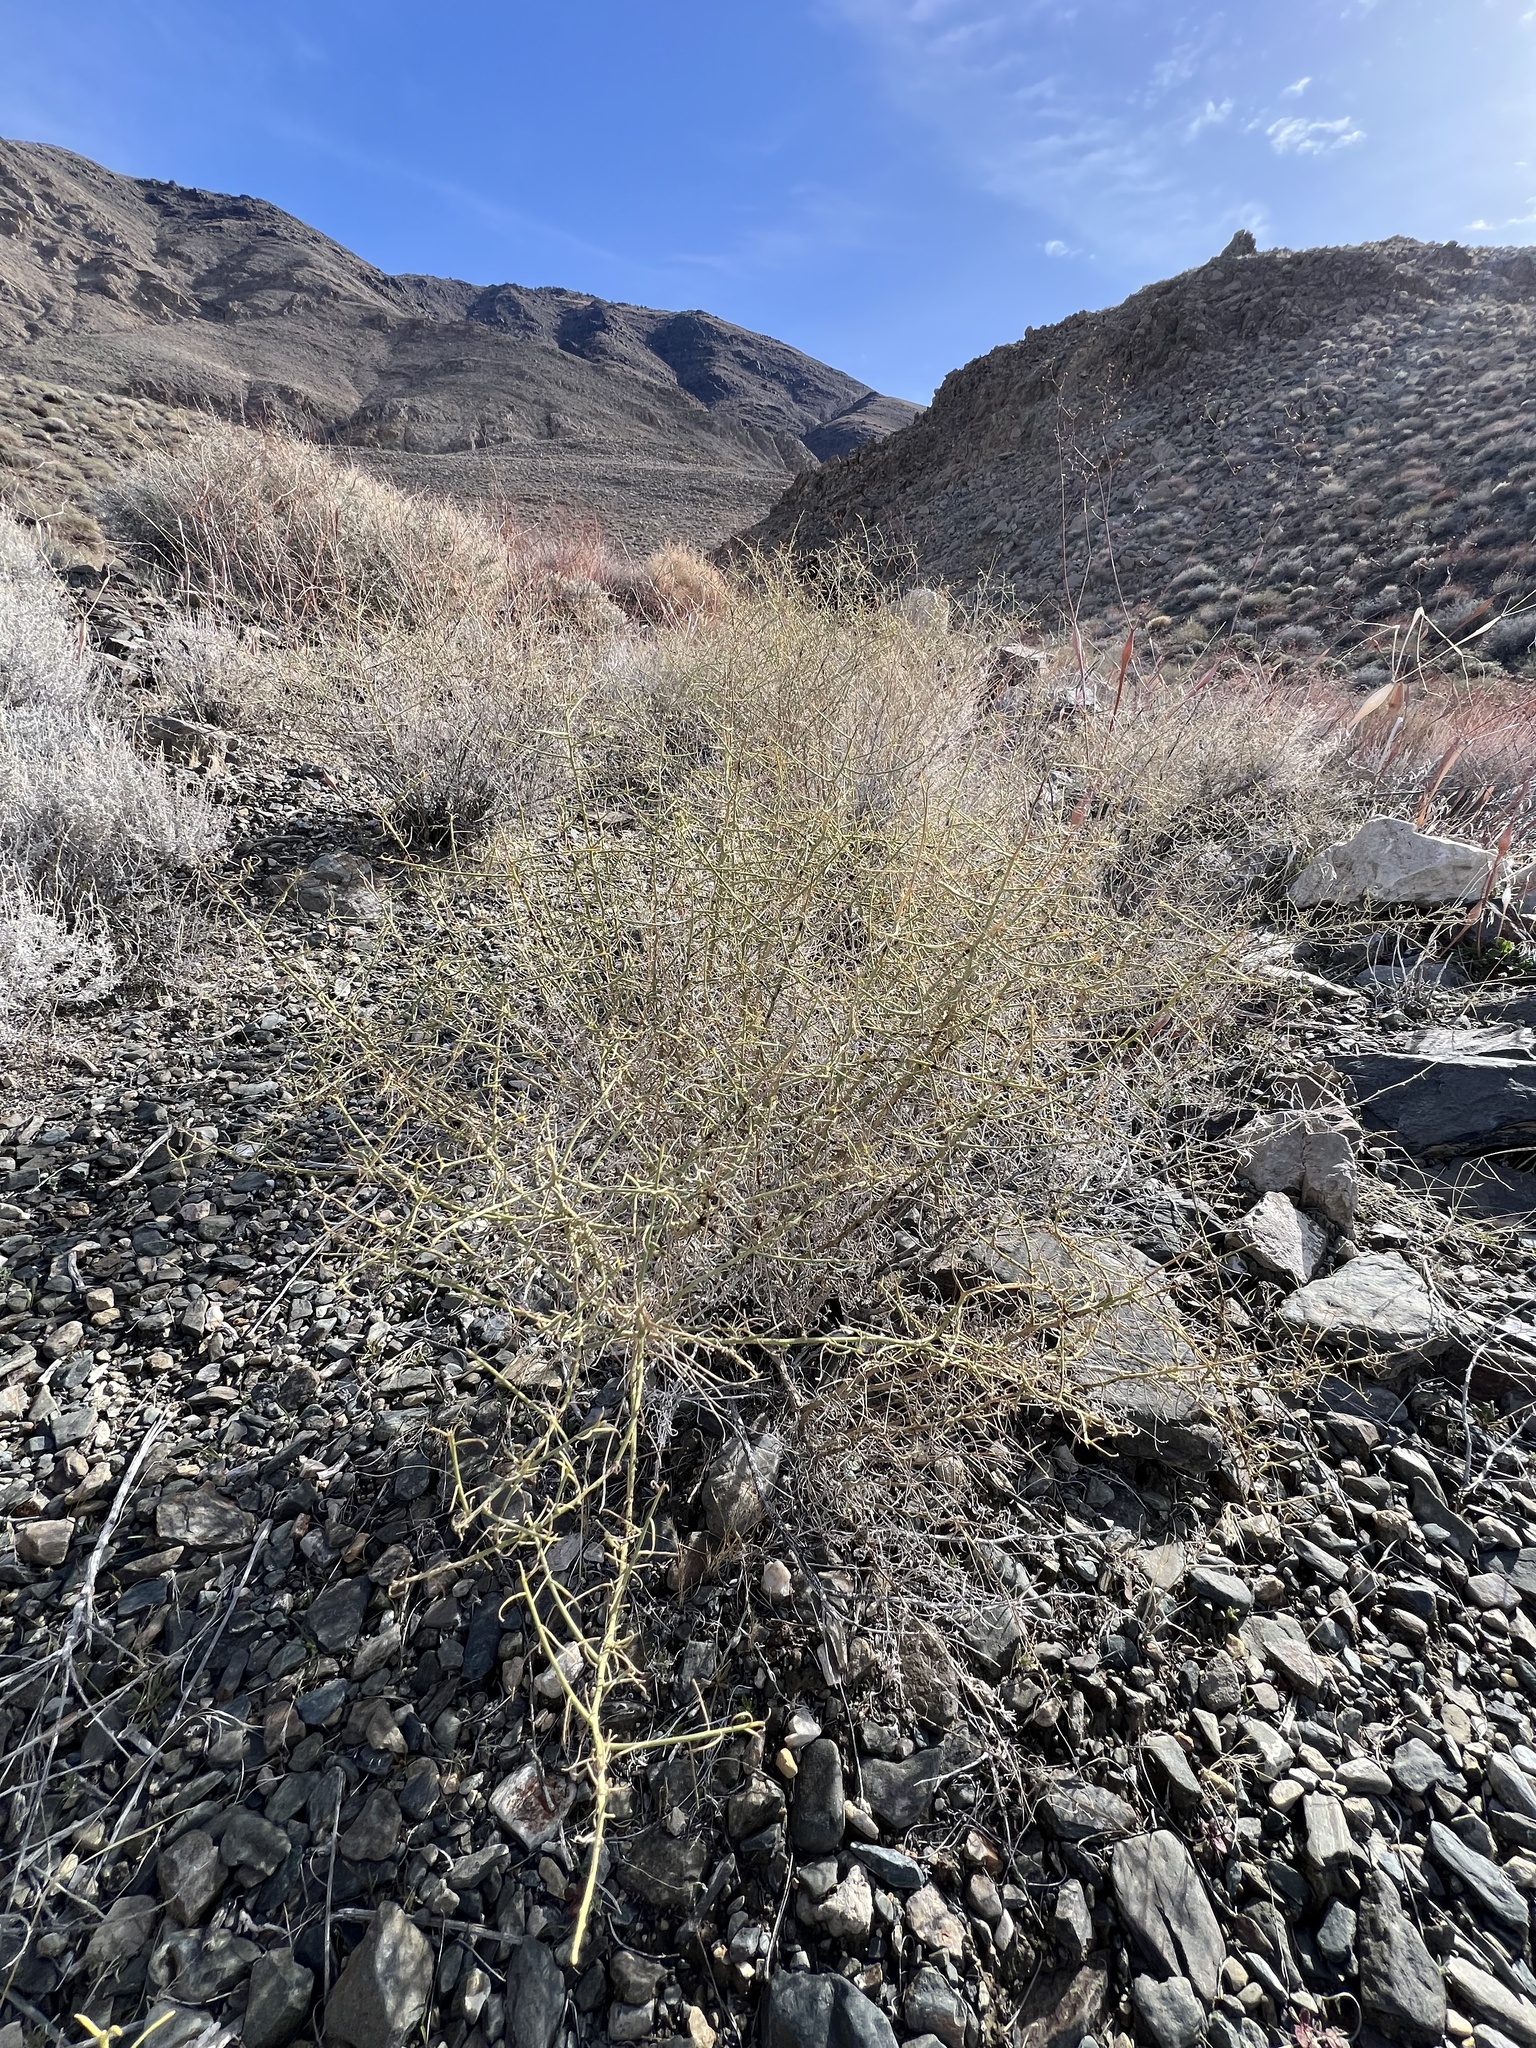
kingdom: Plantae
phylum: Tracheophyta
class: Magnoliopsida
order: Asterales
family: Asteraceae
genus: Ambrosia
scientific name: Ambrosia salsola
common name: Burrobrush
